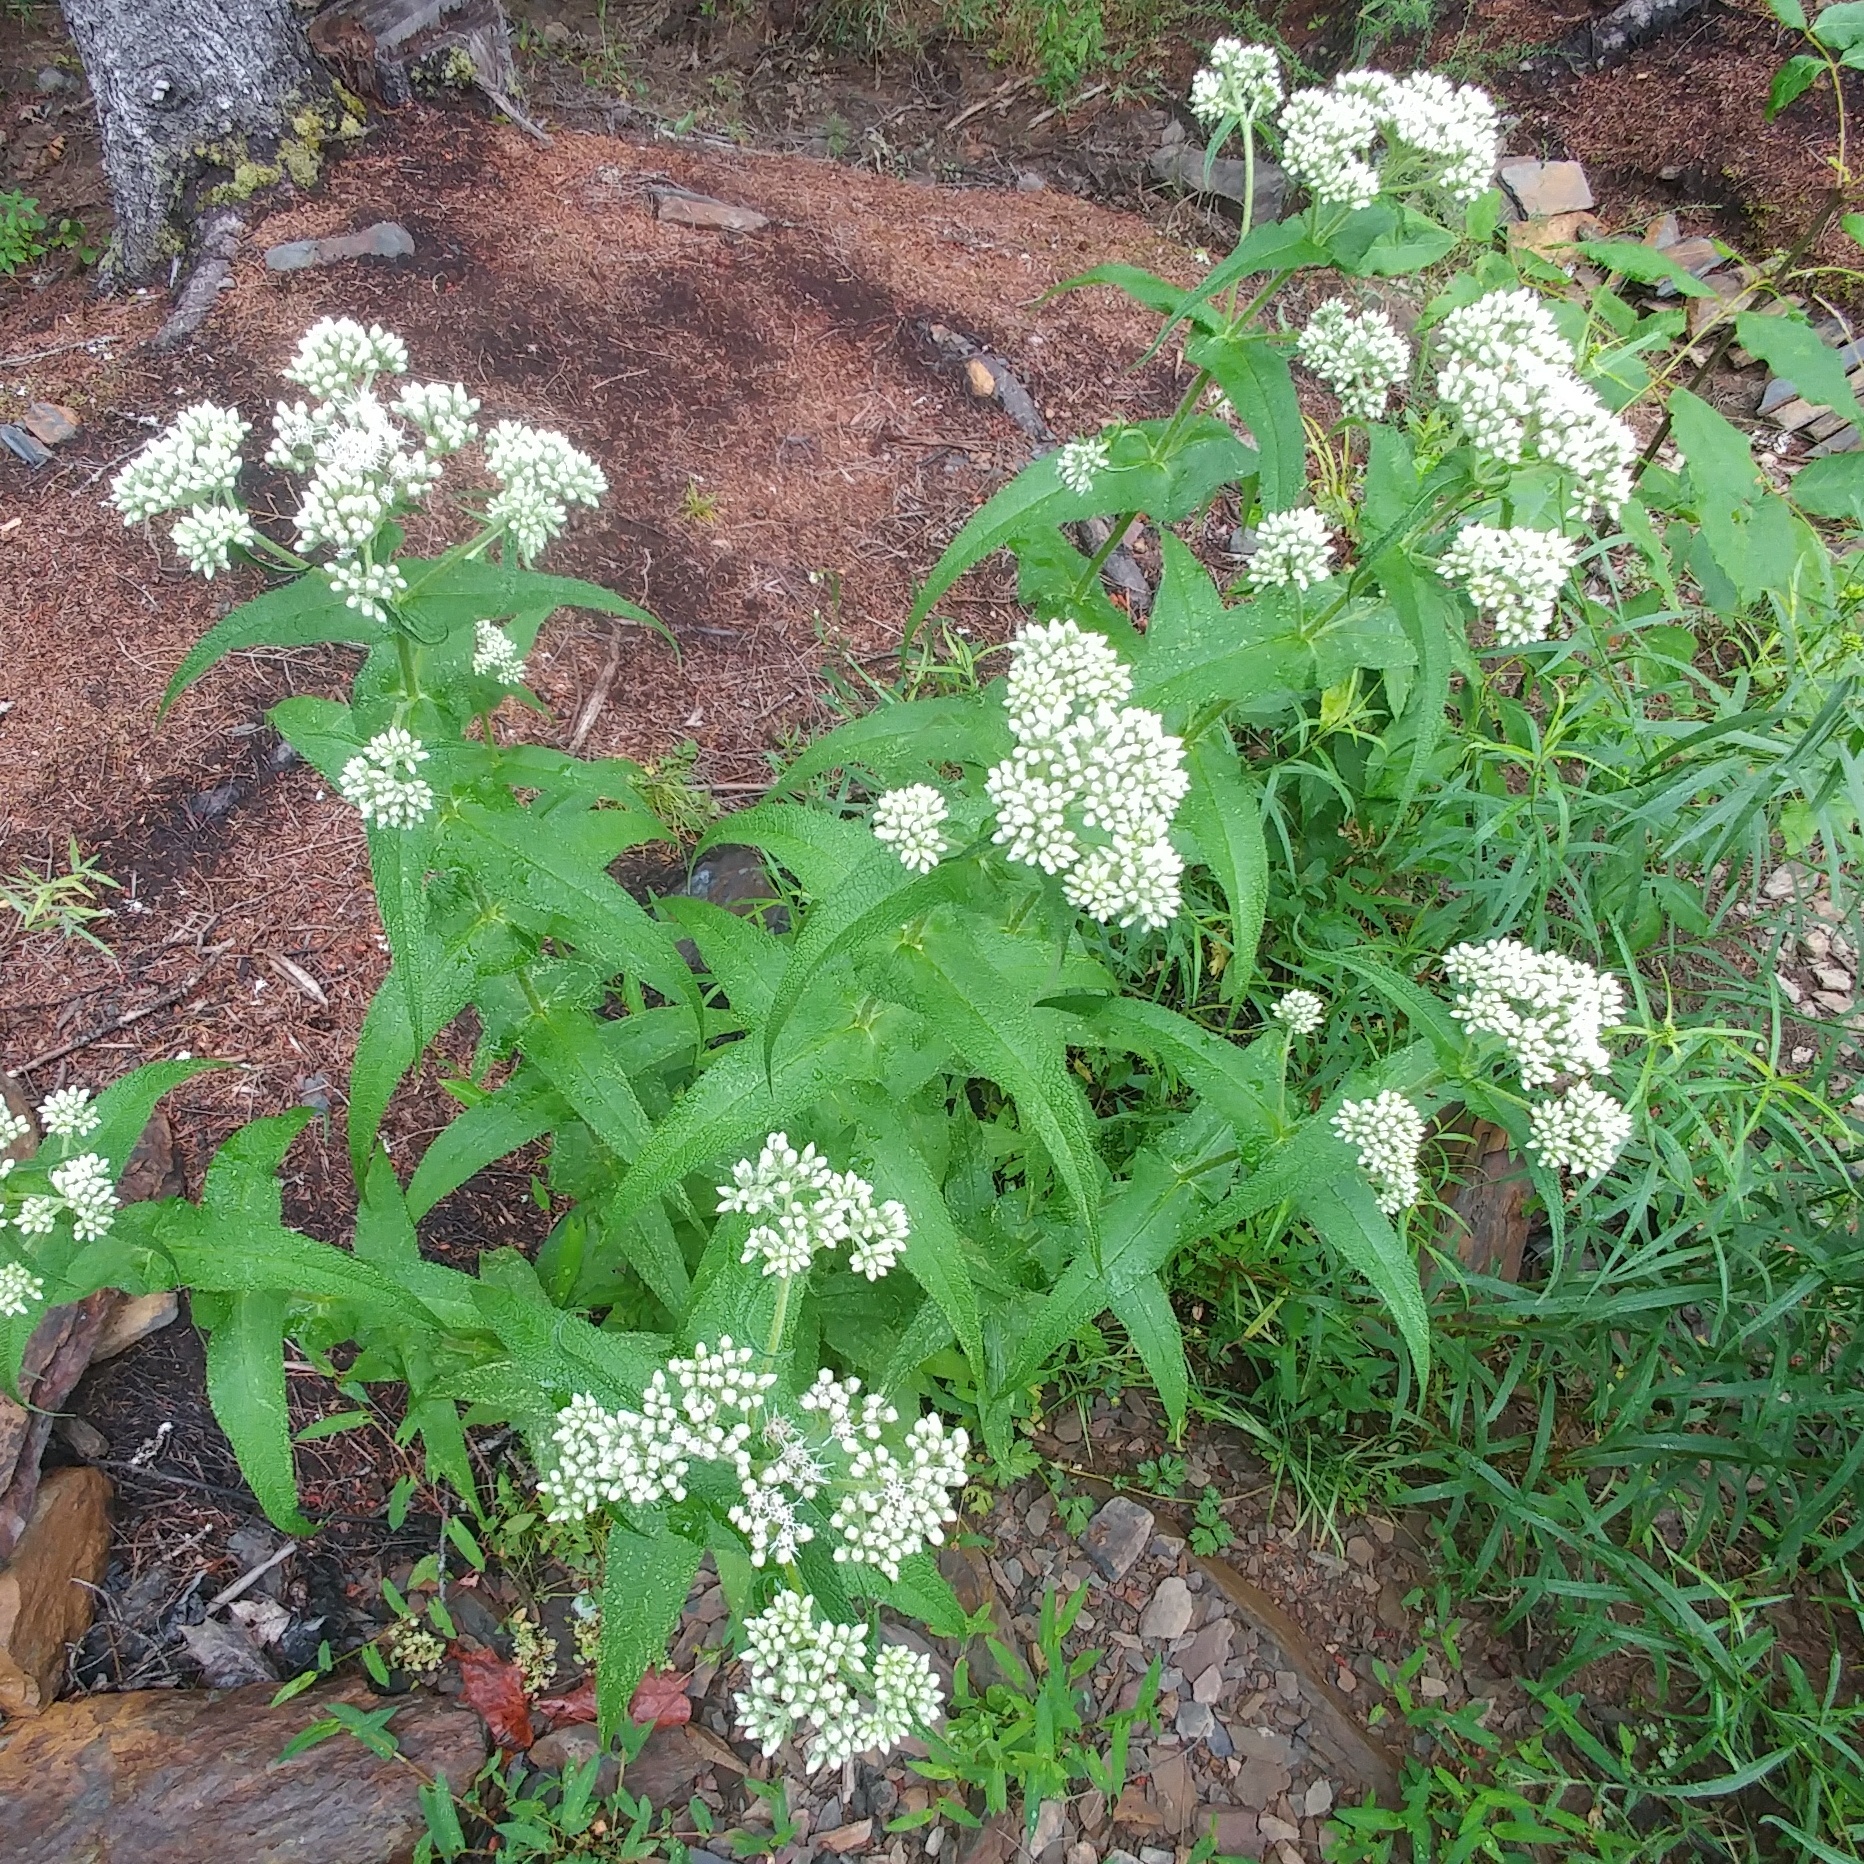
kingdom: Plantae
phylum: Tracheophyta
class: Magnoliopsida
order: Asterales
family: Asteraceae
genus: Eupatorium
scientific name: Eupatorium perfoliatum
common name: Boneset
